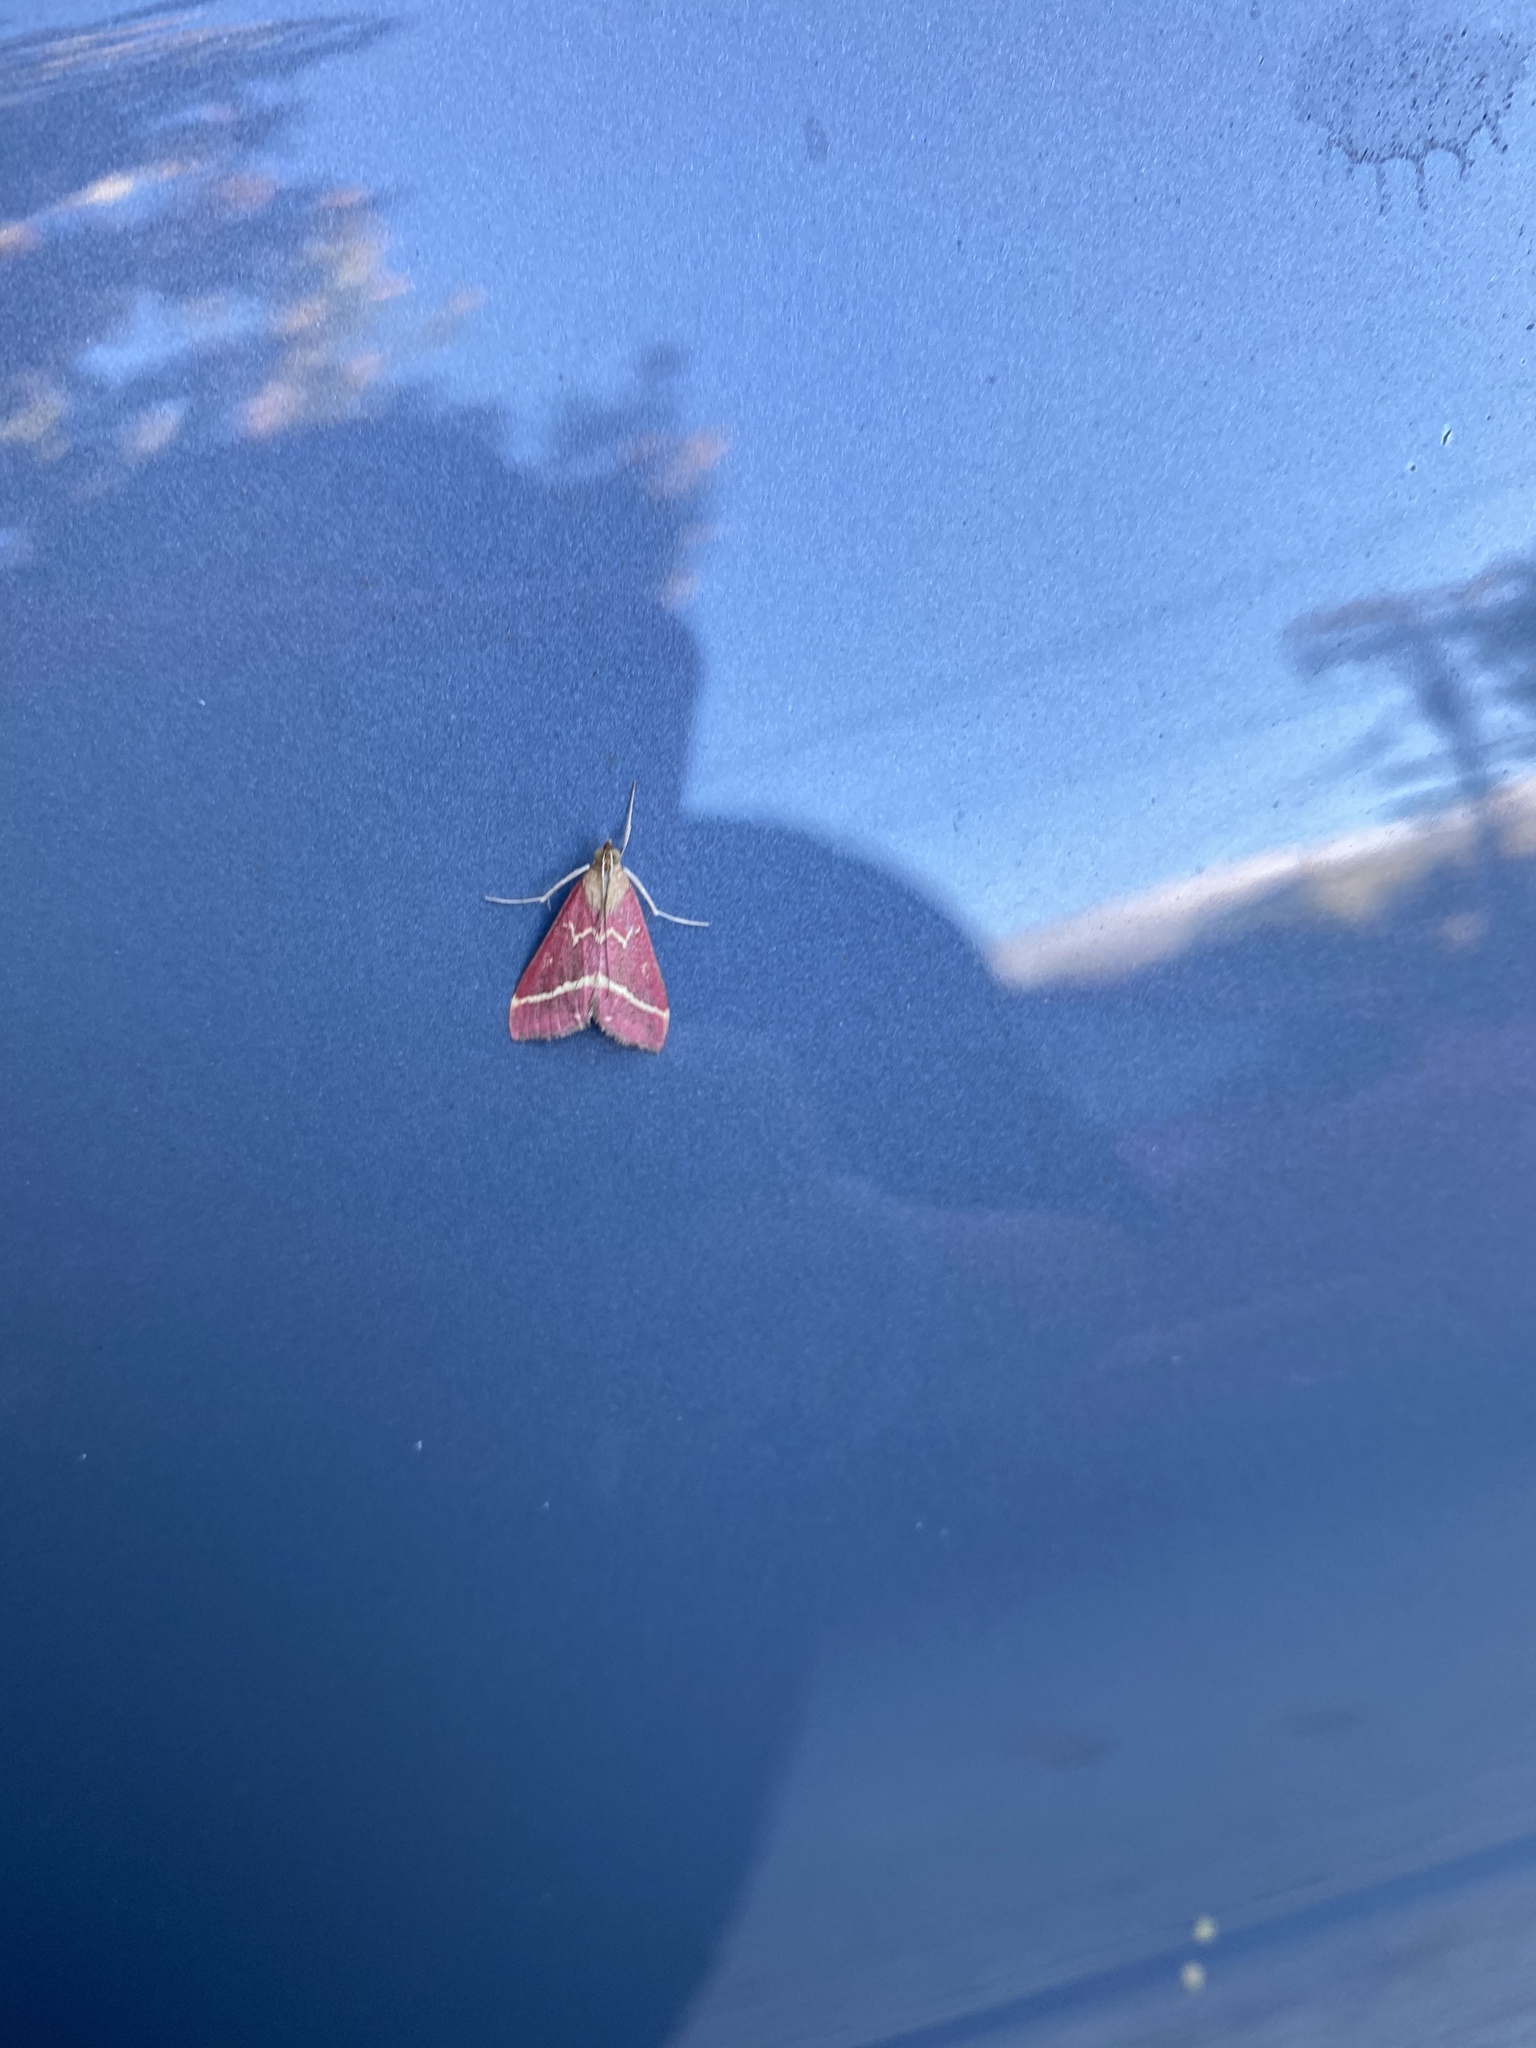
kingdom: Animalia
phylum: Arthropoda
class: Insecta
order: Lepidoptera
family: Crambidae
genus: Pyrausta
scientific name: Pyrausta volupialis
